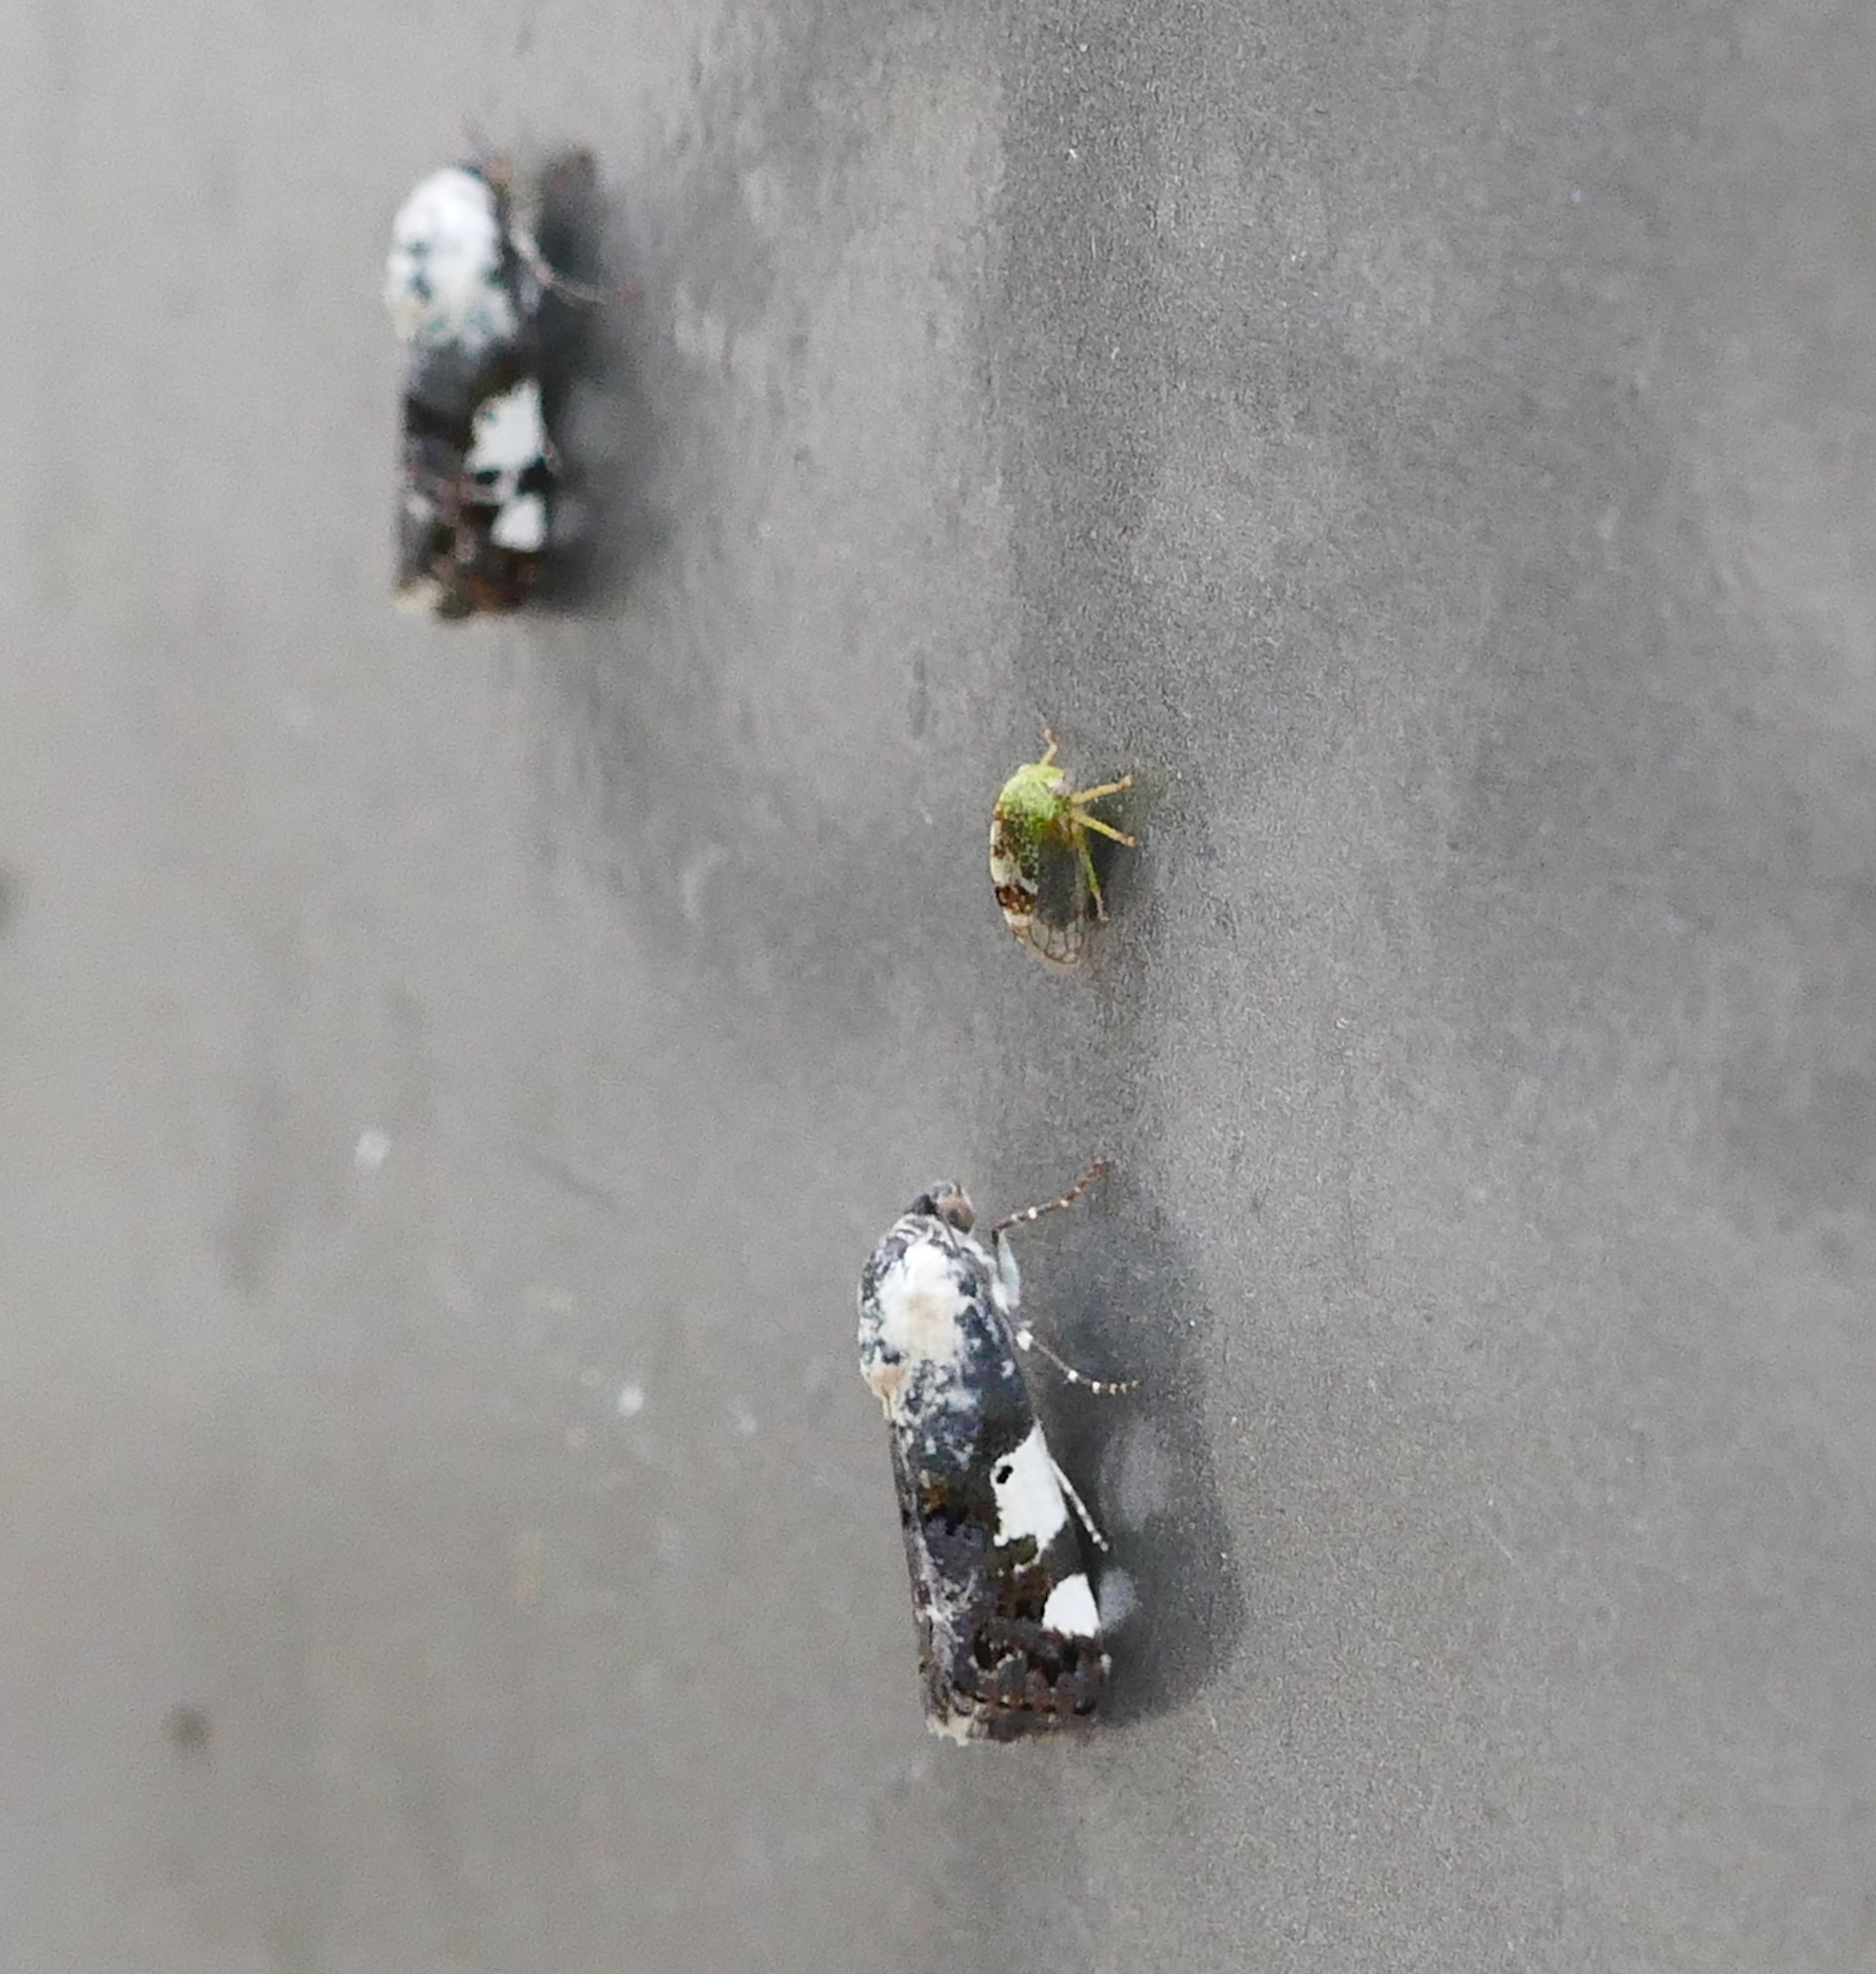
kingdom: Animalia
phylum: Arthropoda
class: Insecta
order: Lepidoptera
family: Noctuidae
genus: Acontia
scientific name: Acontia aprica
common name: Nun
